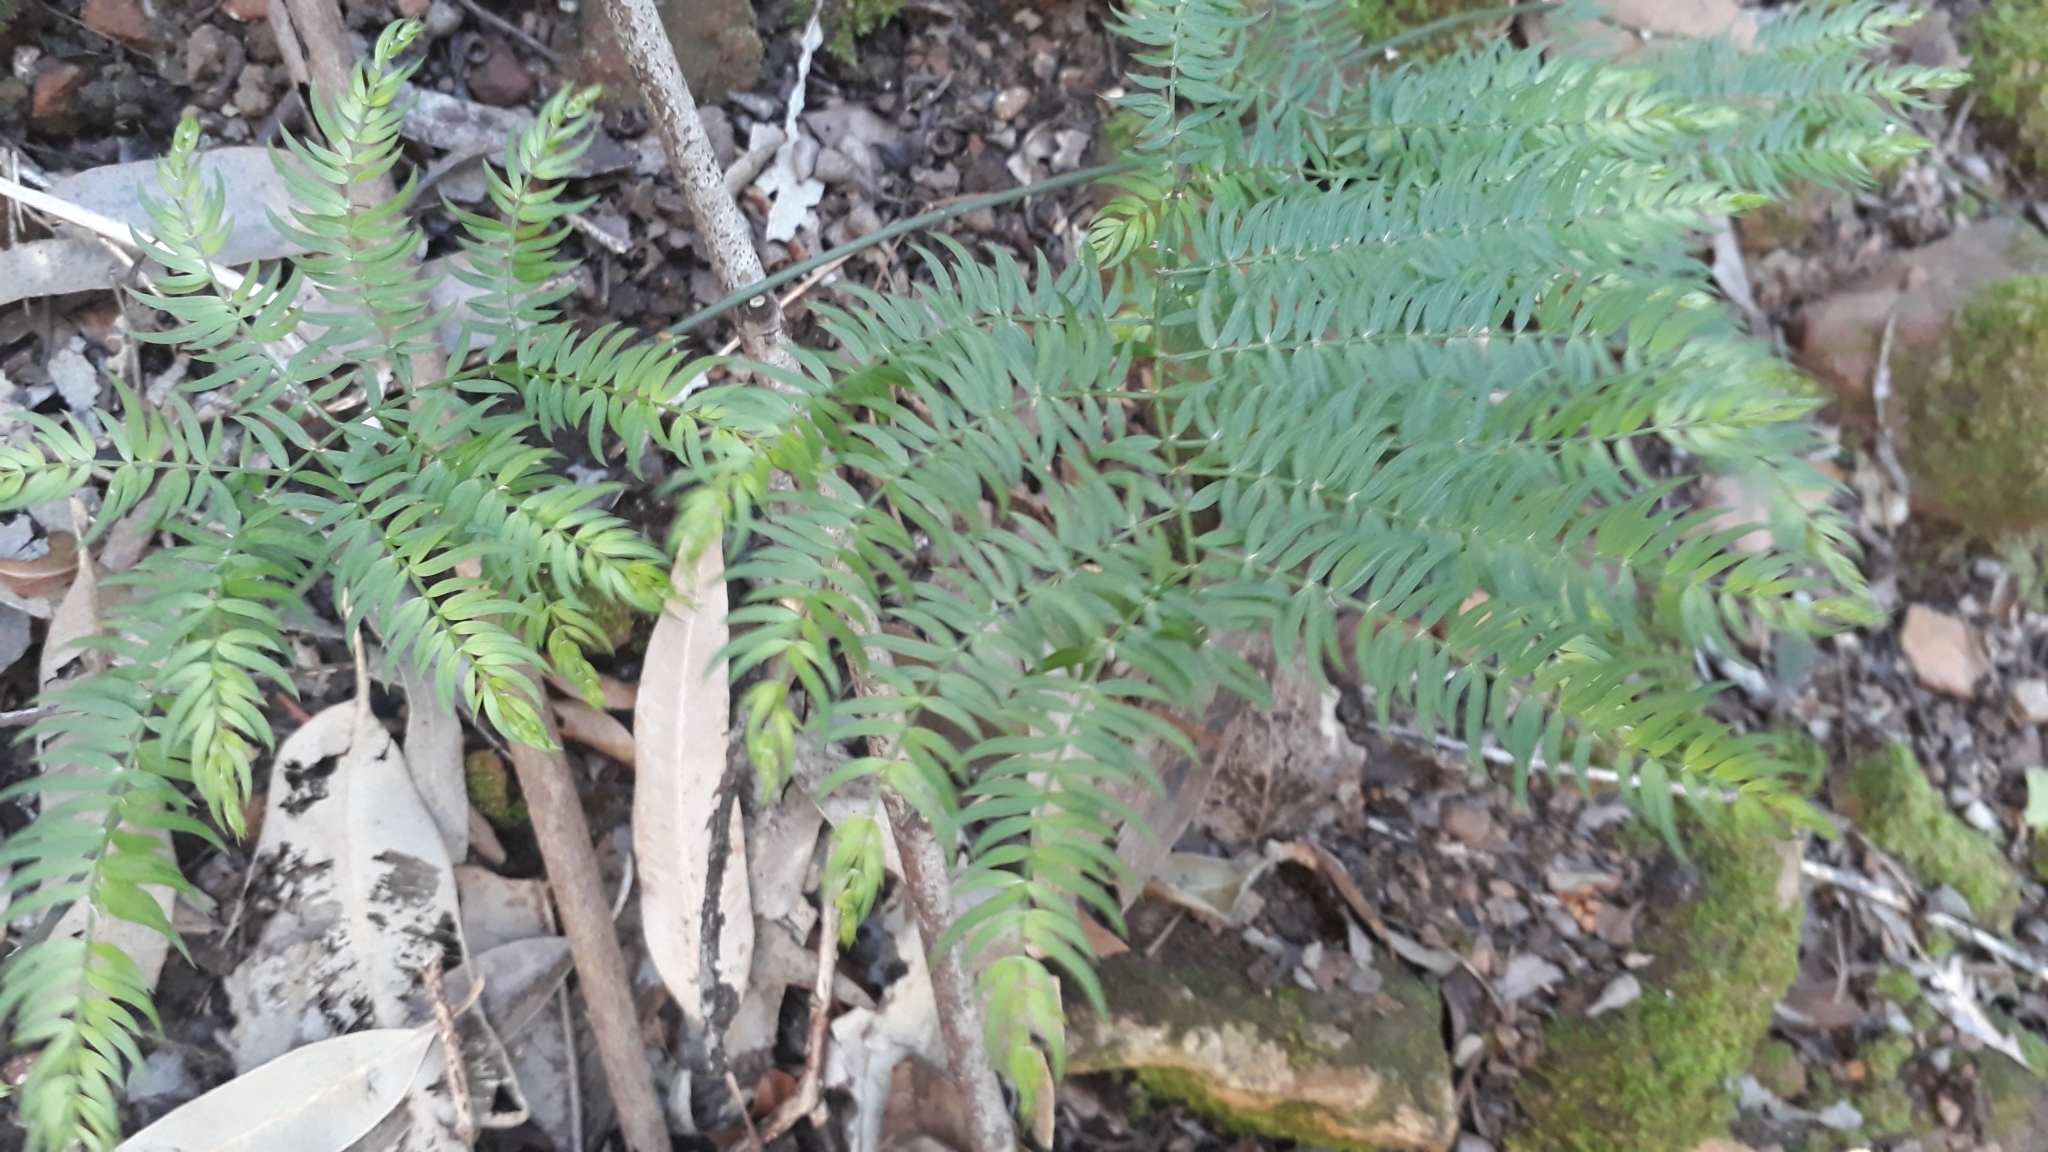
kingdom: Plantae
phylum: Tracheophyta
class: Liliopsida
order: Asparagales
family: Asparagaceae
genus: Asparagus
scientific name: Asparagus scandens
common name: Asparagus-fern
